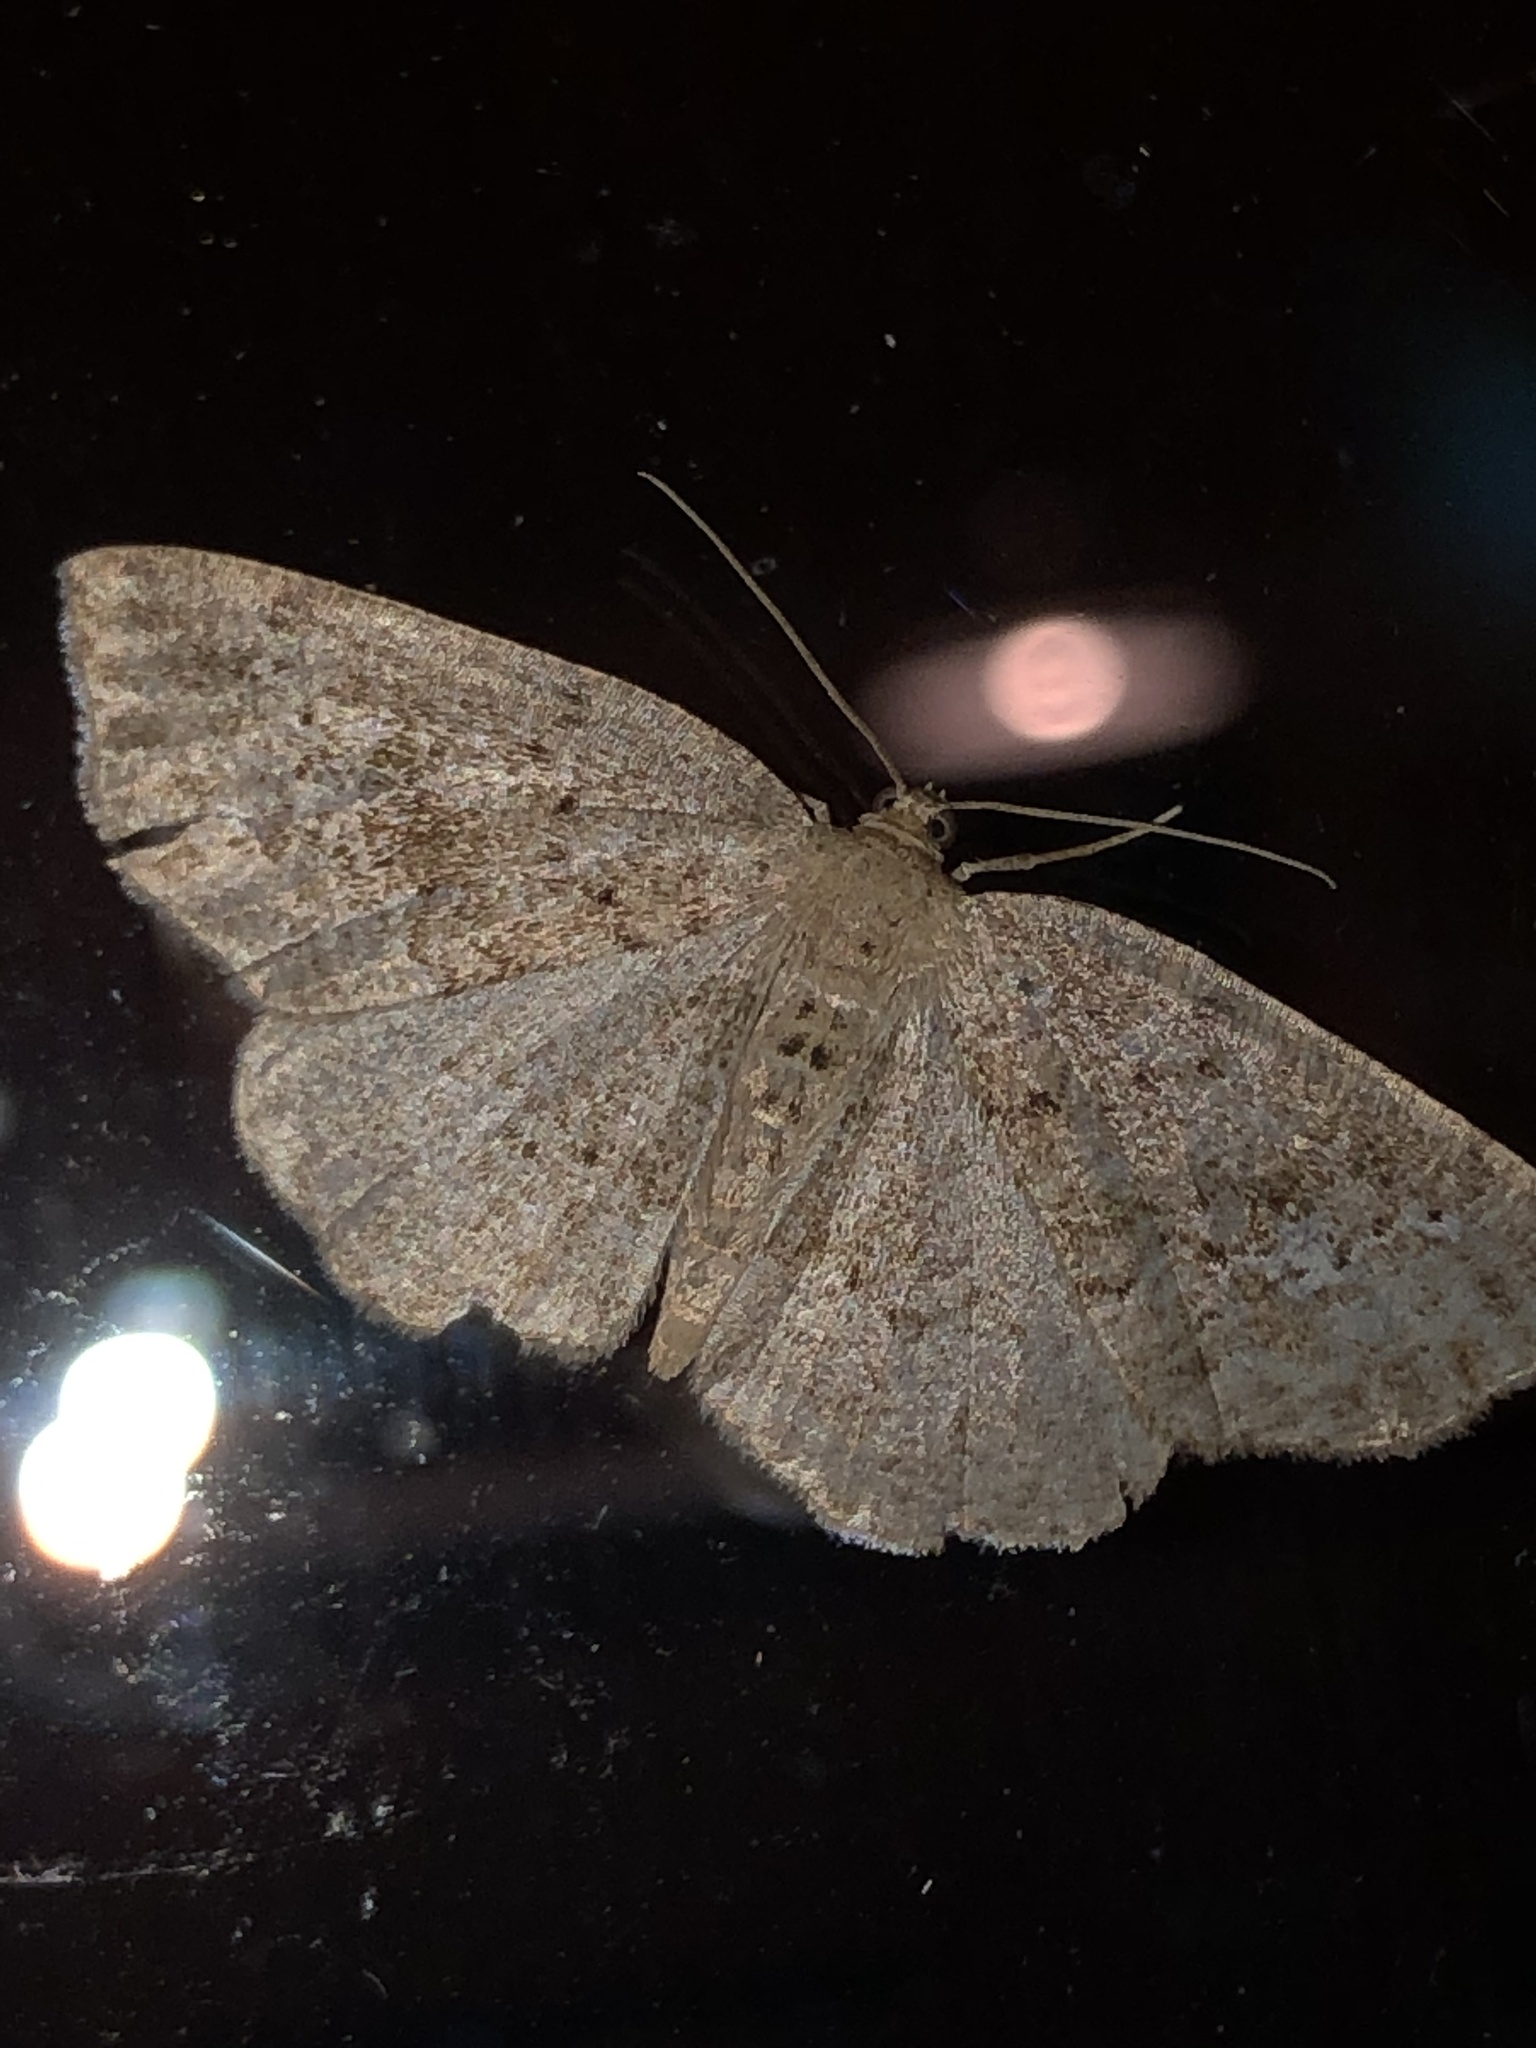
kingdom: Animalia
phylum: Arthropoda
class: Insecta
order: Lepidoptera
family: Geometridae
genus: Homochlodes
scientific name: Homochlodes fritillaria
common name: Pale homochlodes
